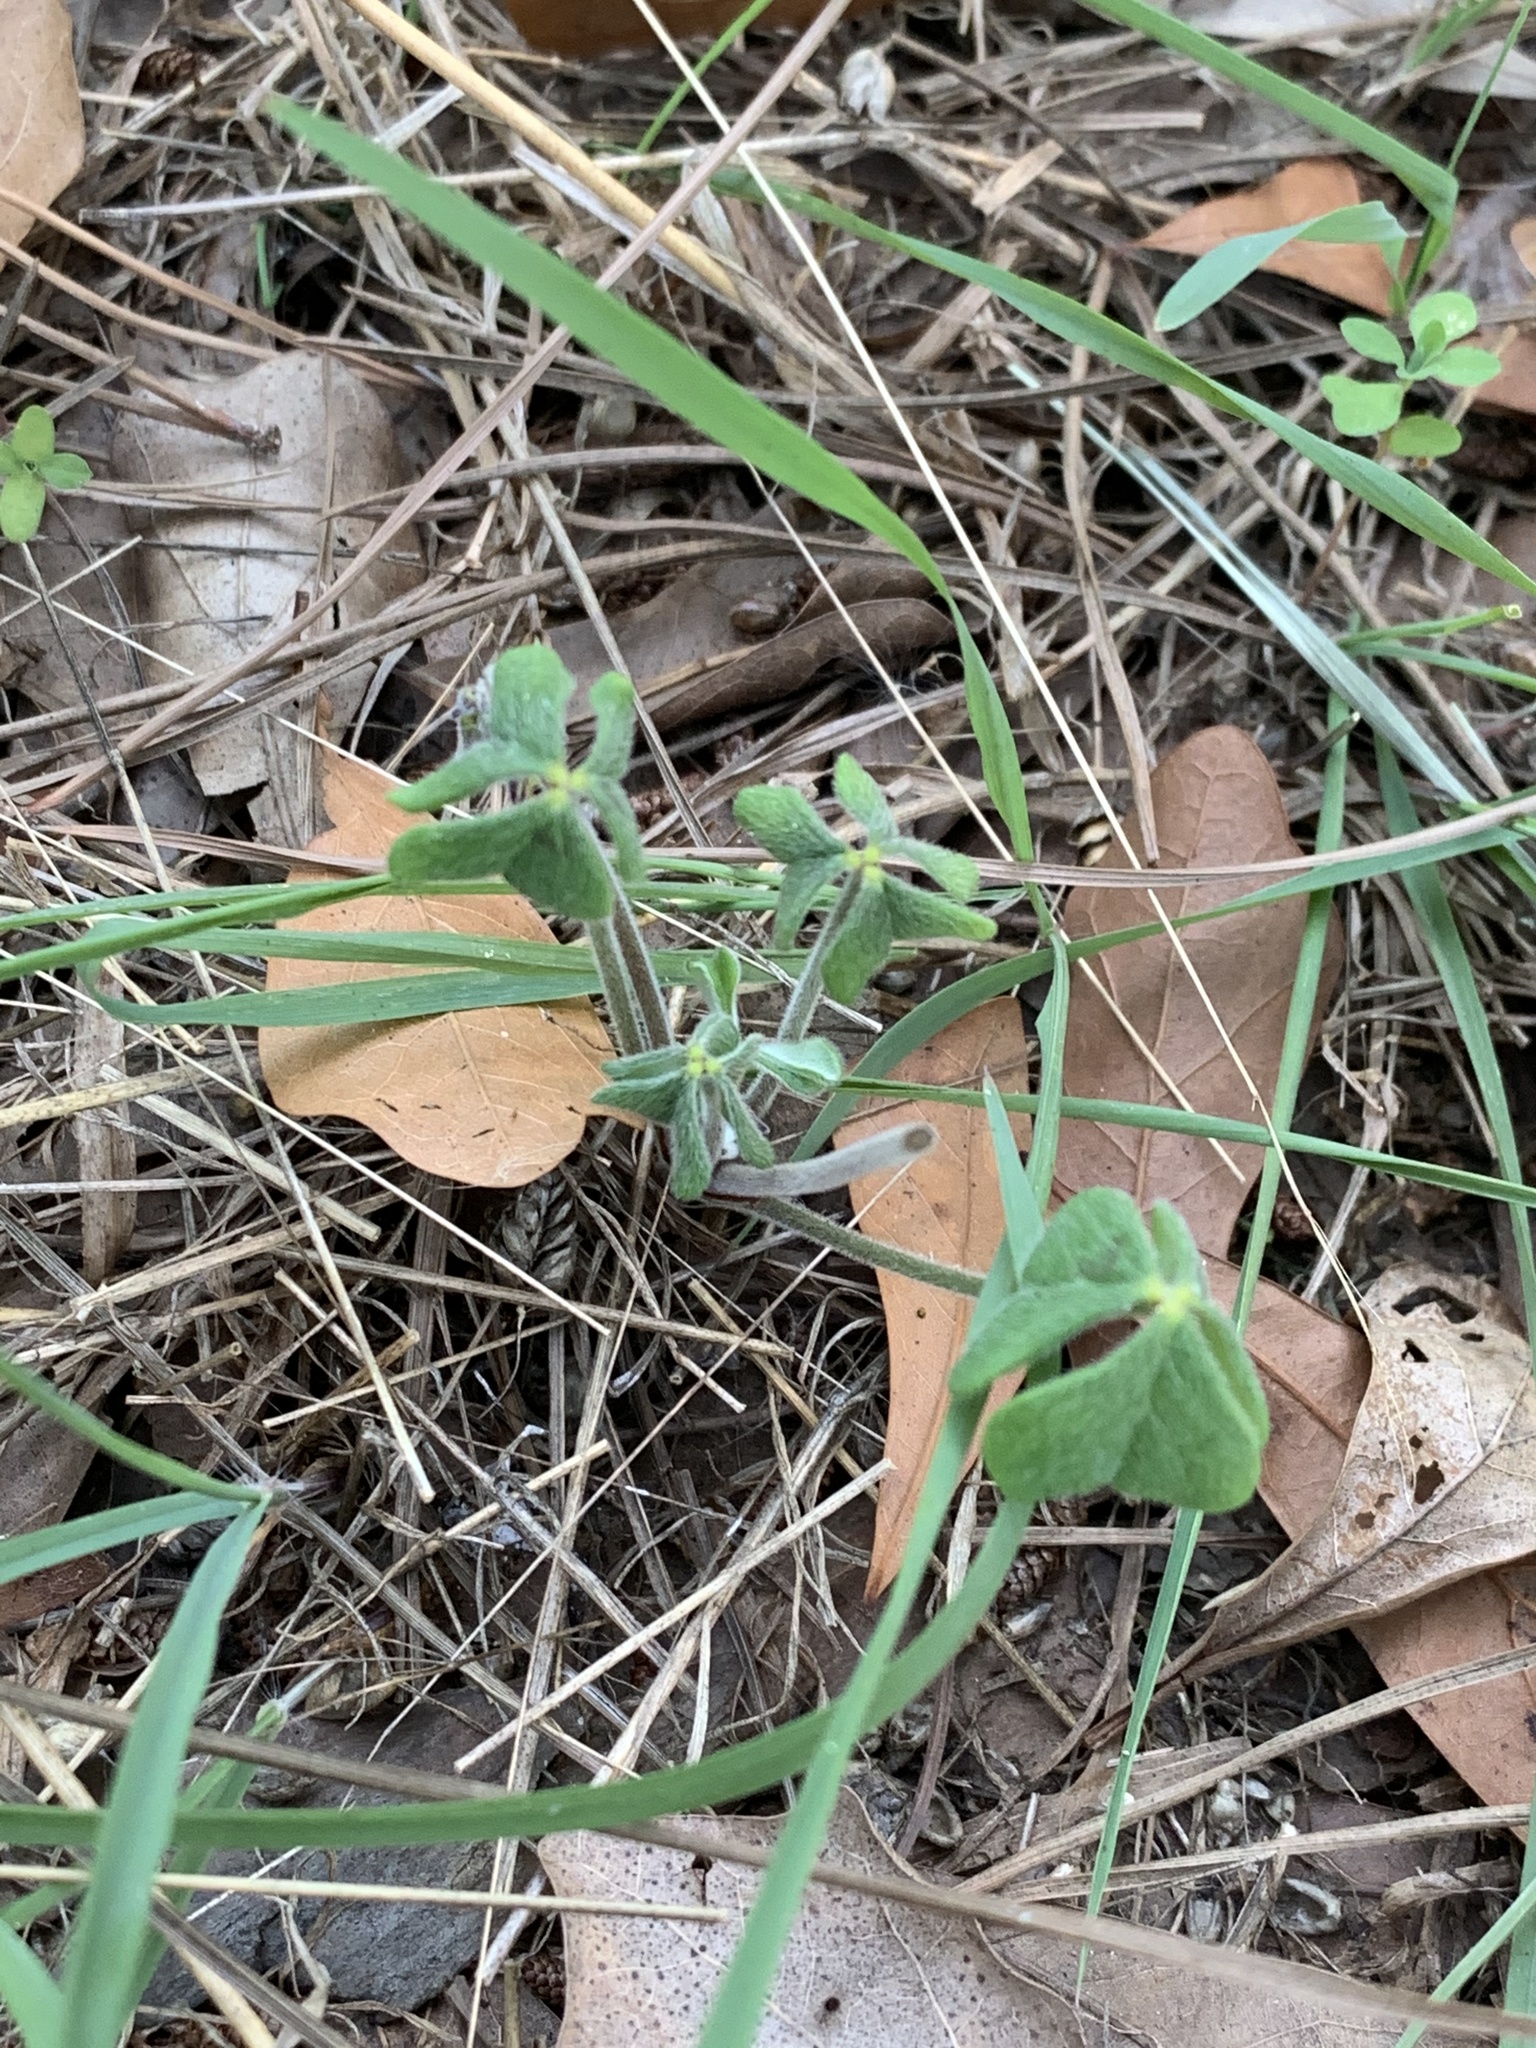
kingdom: Plantae
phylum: Tracheophyta
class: Magnoliopsida
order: Oxalidales
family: Oxalidaceae
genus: Oxalis
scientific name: Oxalis pes-caprae
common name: Bermuda-buttercup
